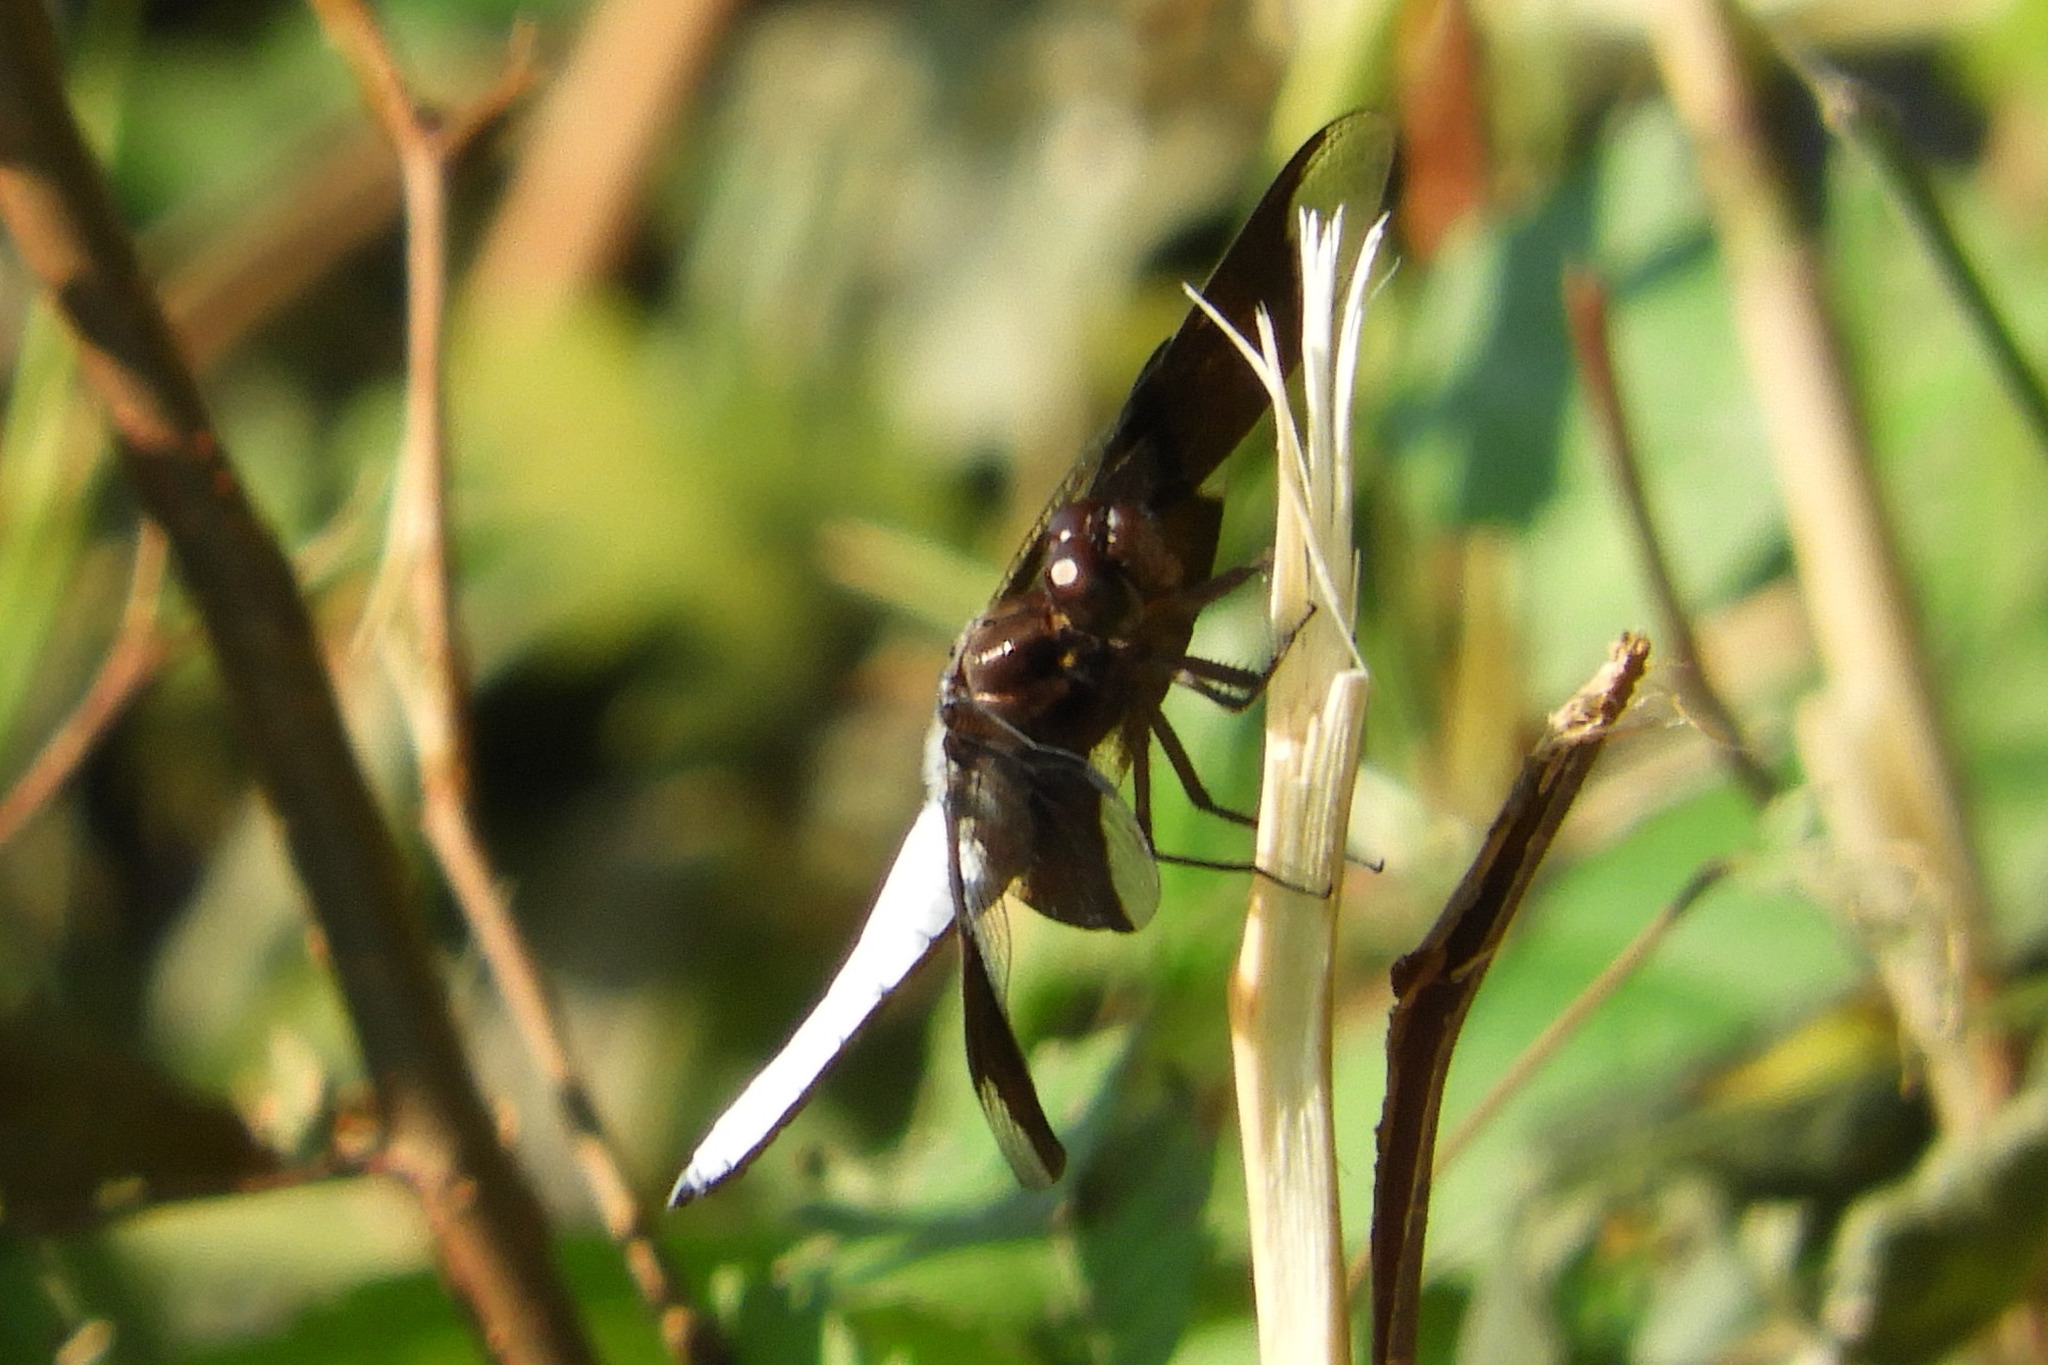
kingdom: Animalia
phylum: Arthropoda
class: Insecta
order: Odonata
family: Libellulidae
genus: Plathemis
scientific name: Plathemis lydia
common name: Common whitetail
